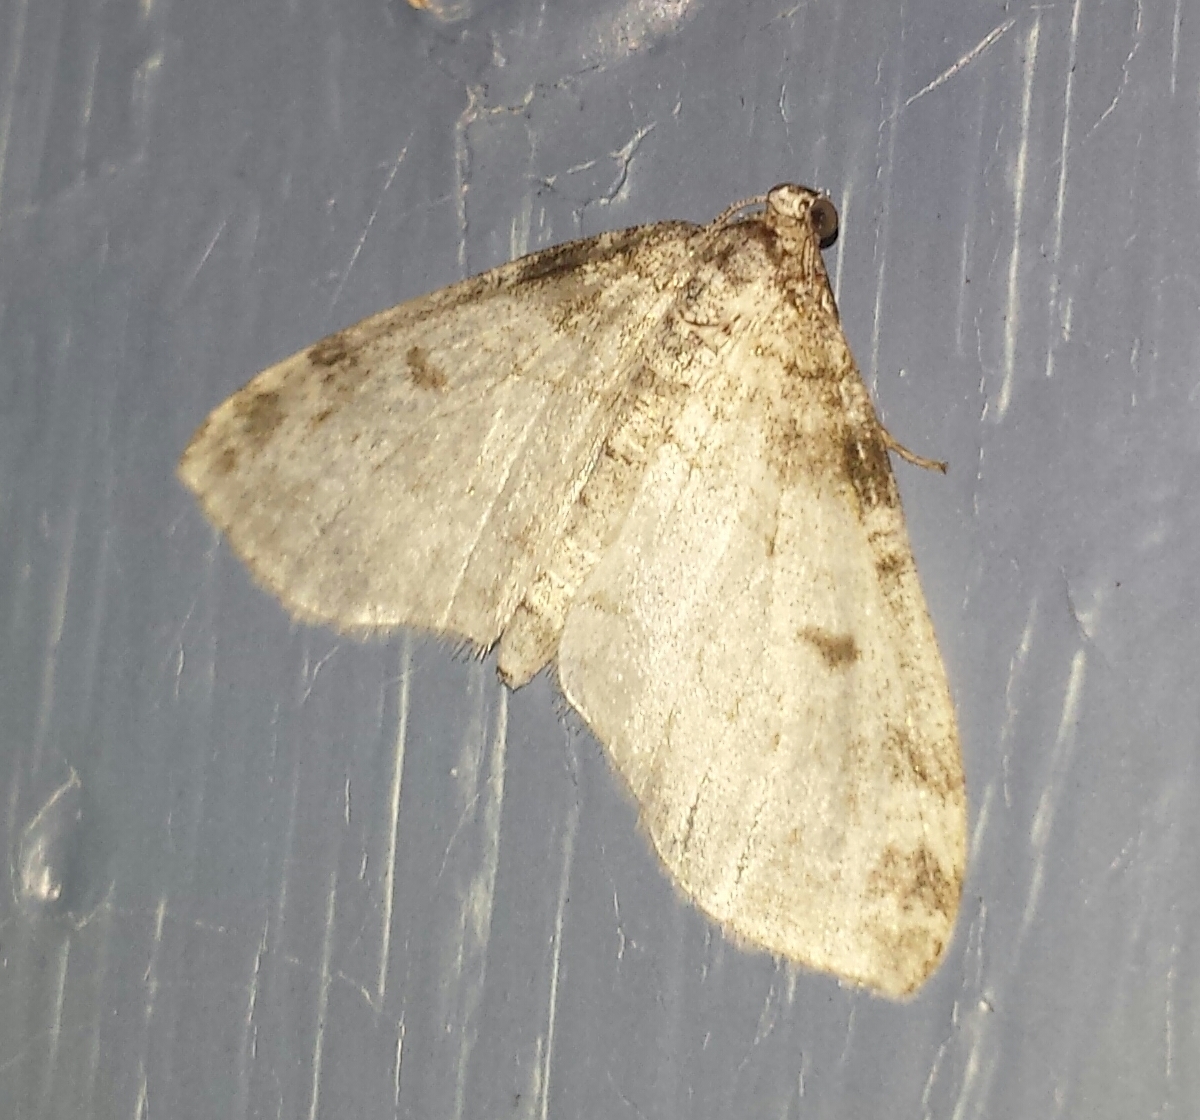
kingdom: Animalia
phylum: Arthropoda
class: Insecta
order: Lepidoptera
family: Geometridae
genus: Lobophora
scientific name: Lobophora nivigerata
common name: Powdered bigwing
